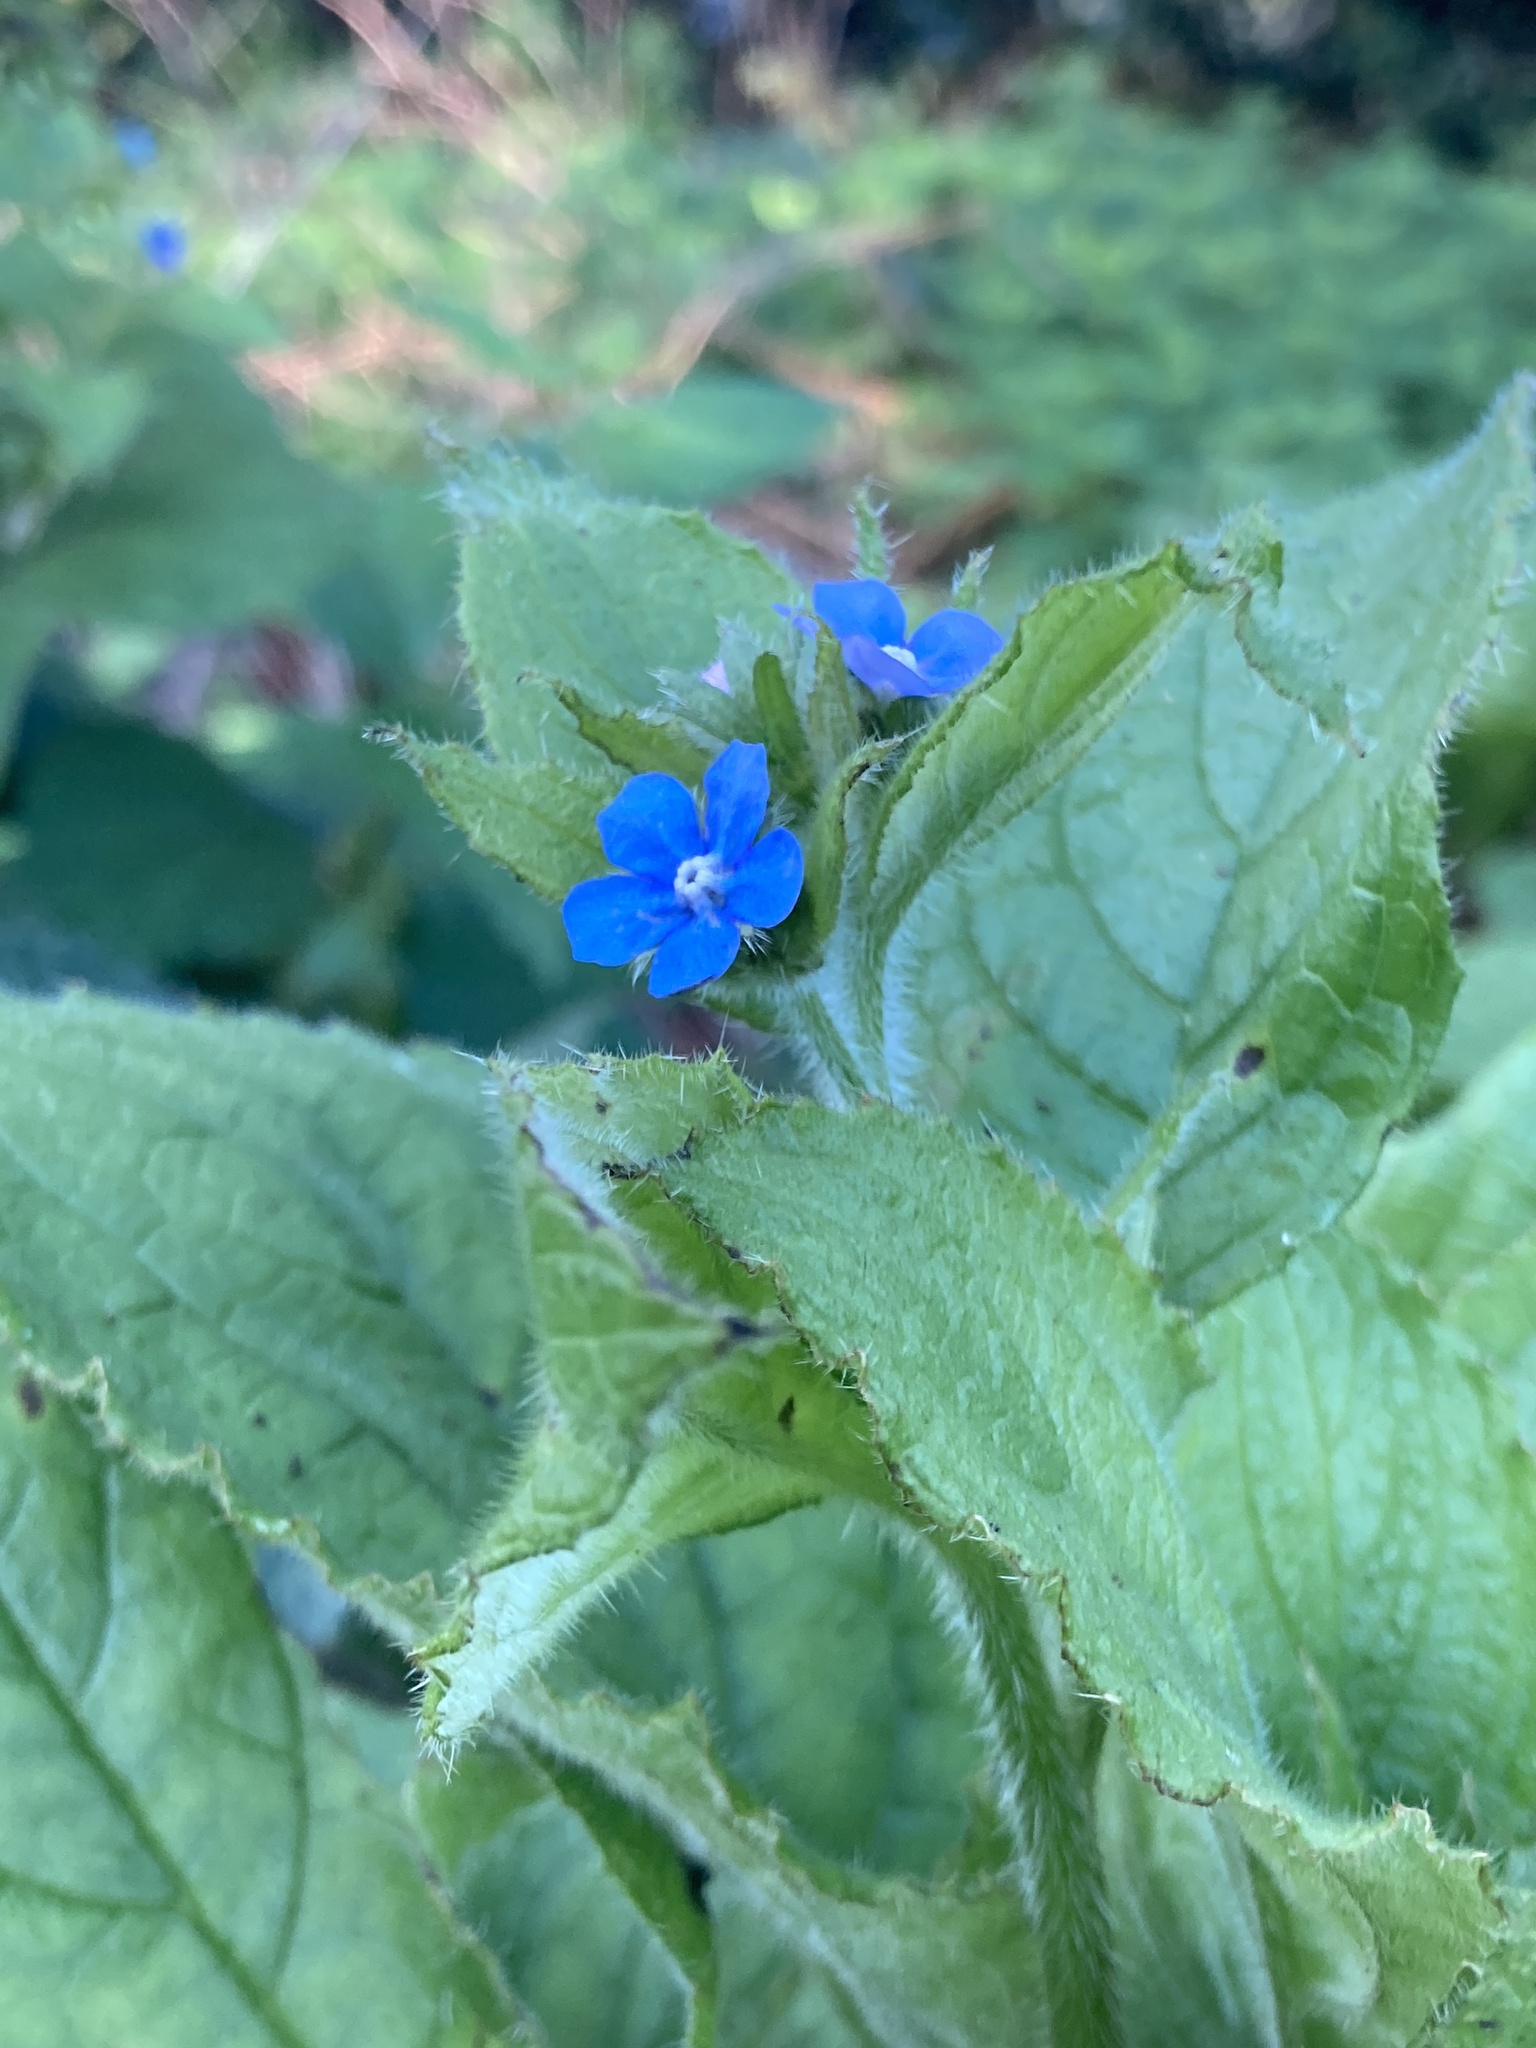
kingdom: Plantae
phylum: Tracheophyta
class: Magnoliopsida
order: Boraginales
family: Boraginaceae
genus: Pentaglottis
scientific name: Pentaglottis sempervirens
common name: Green alkanet
